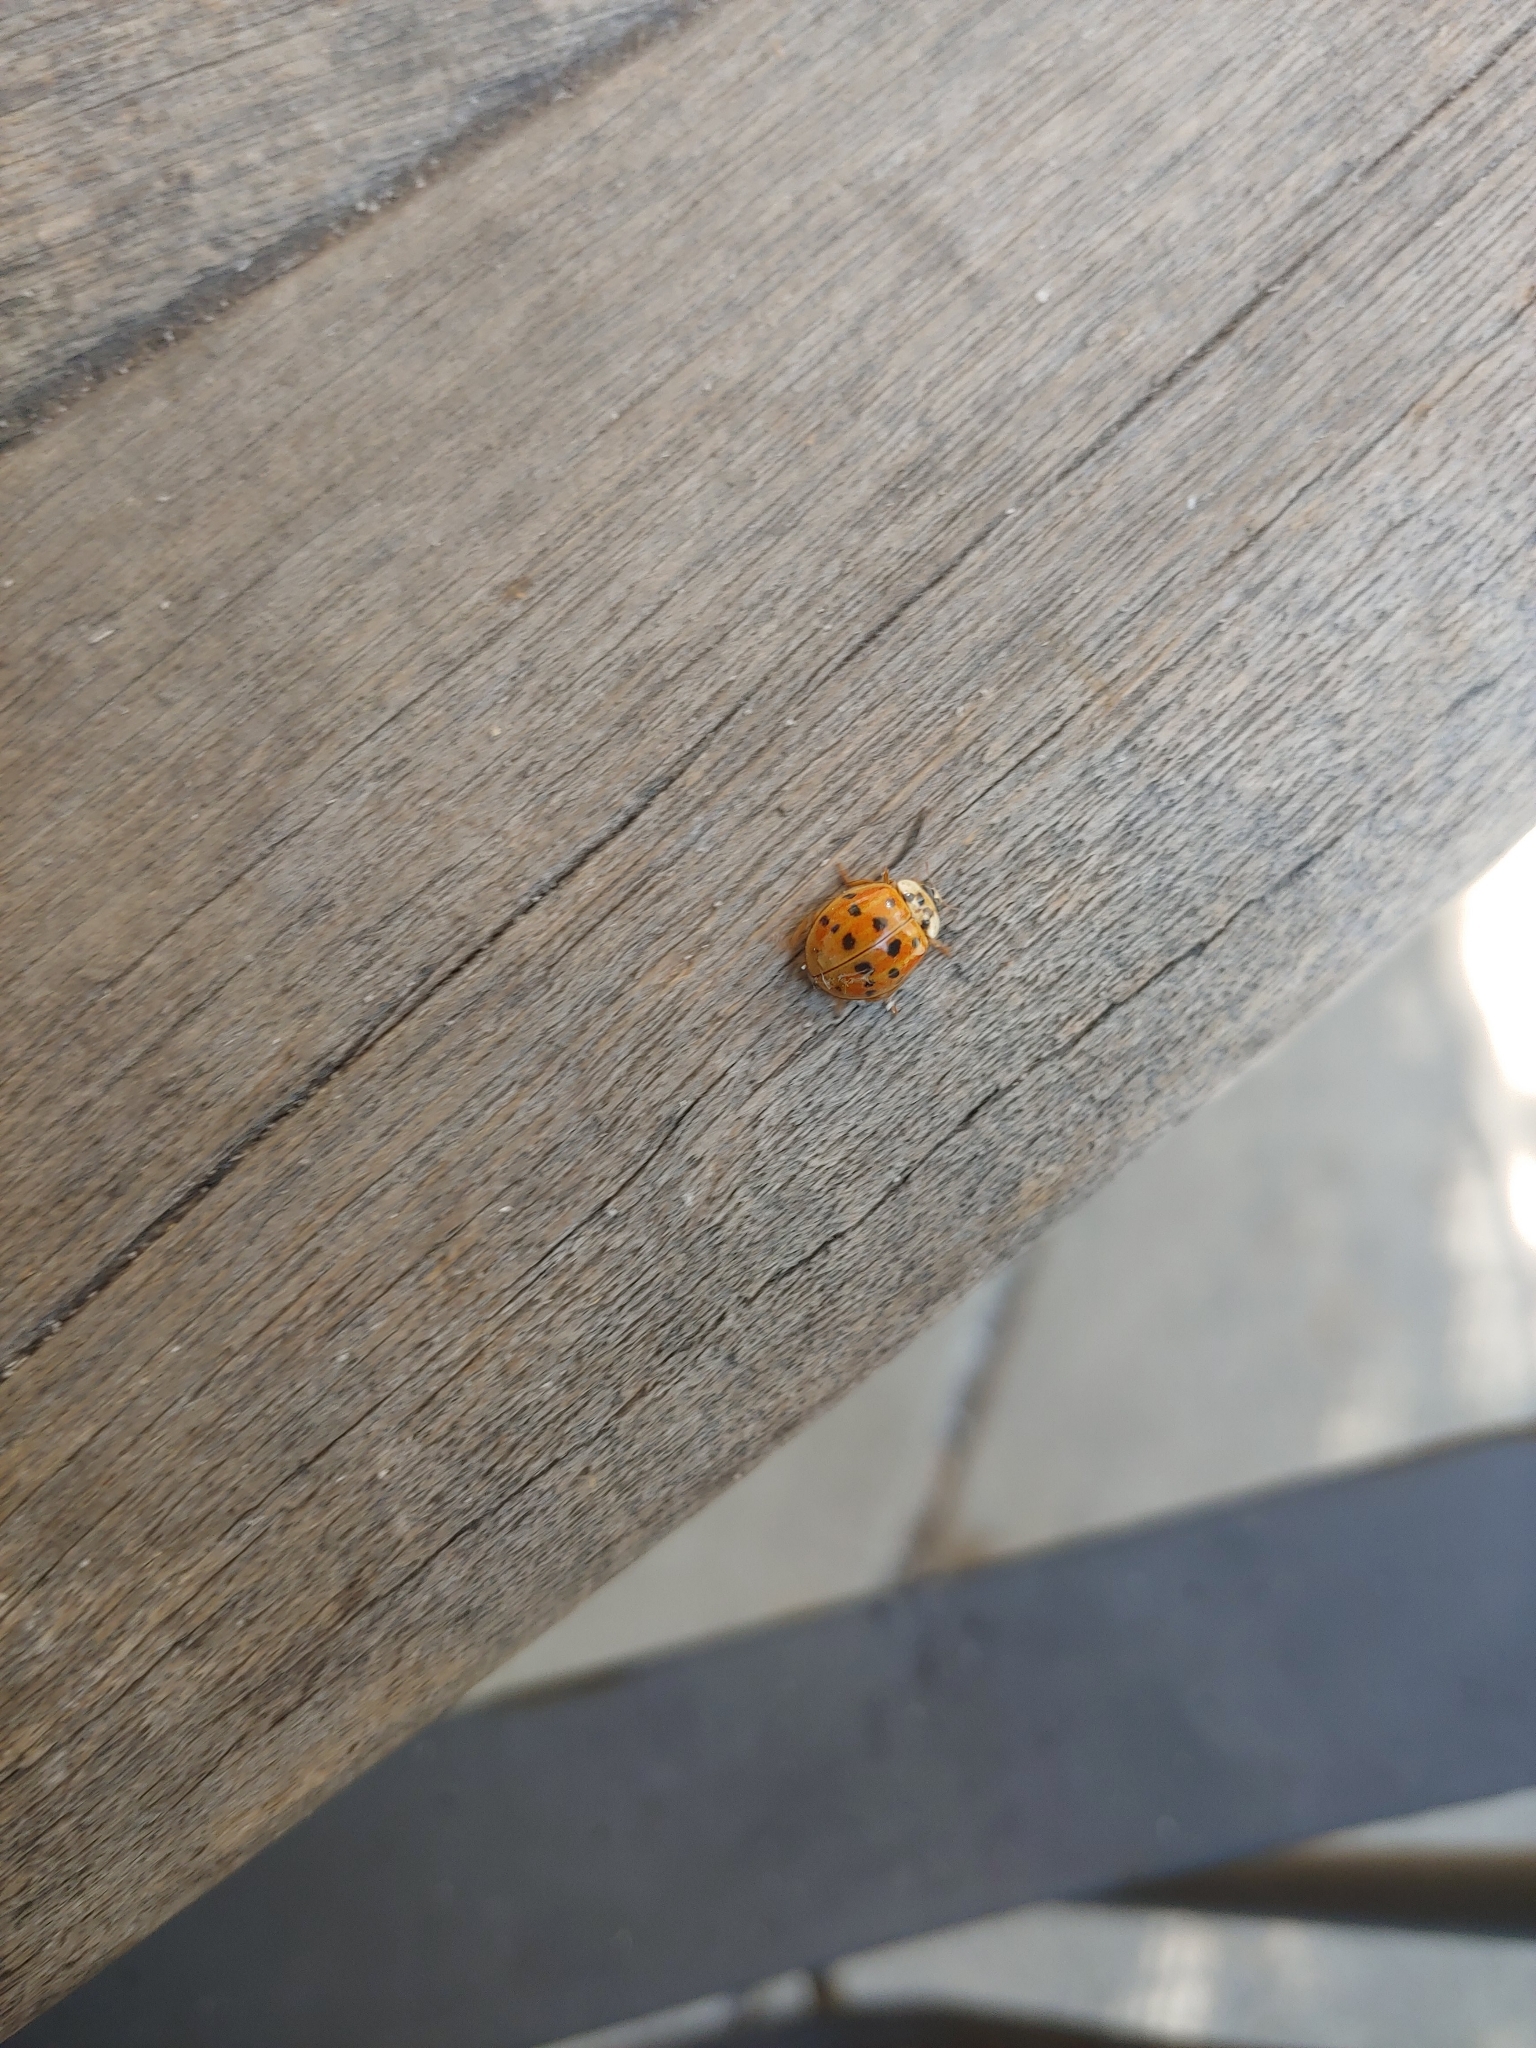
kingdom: Animalia
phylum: Arthropoda
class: Insecta
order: Coleoptera
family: Coccinellidae
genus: Harmonia
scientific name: Harmonia axyridis
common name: Harlequin ladybird
